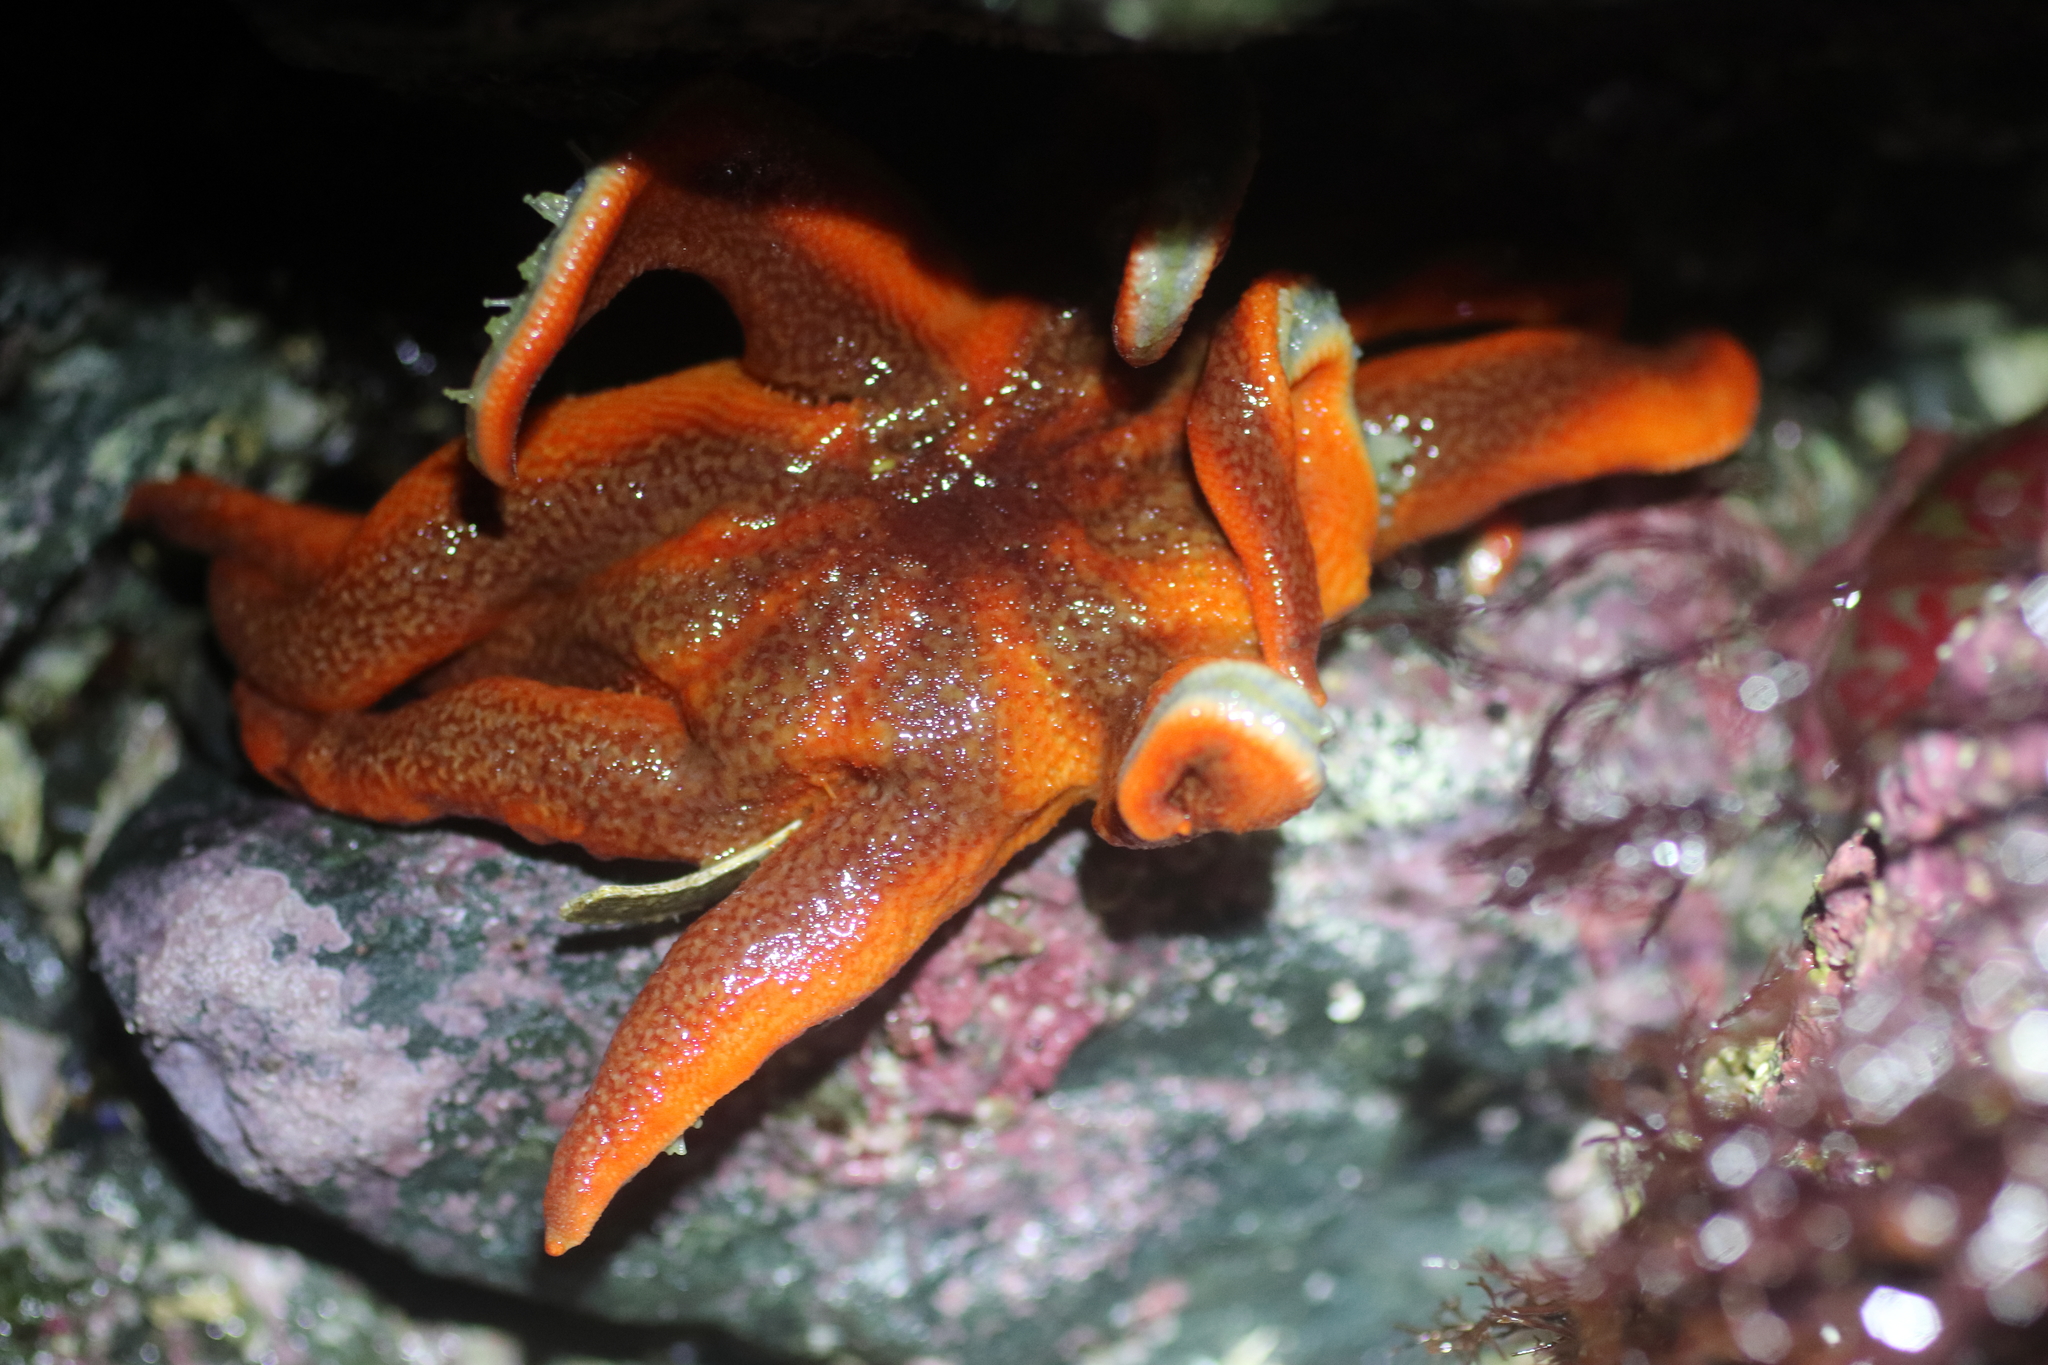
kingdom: Animalia
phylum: Echinodermata
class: Asteroidea
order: Valvatida
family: Solasteridae
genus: Solaster
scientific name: Solaster stimpsoni
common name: Orange sun star
